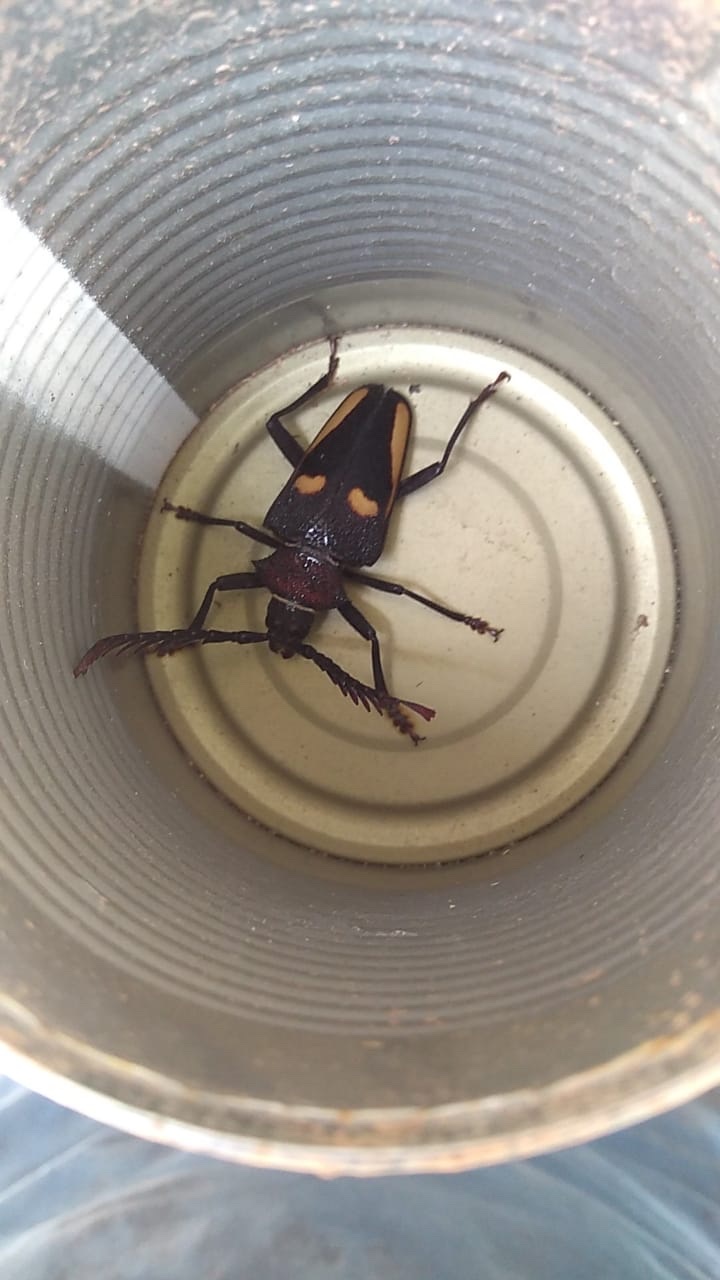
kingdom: Animalia
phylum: Arthropoda
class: Insecta
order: Coleoptera
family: Cerambycidae
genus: Calocomus
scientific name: Calocomus desmarestii
